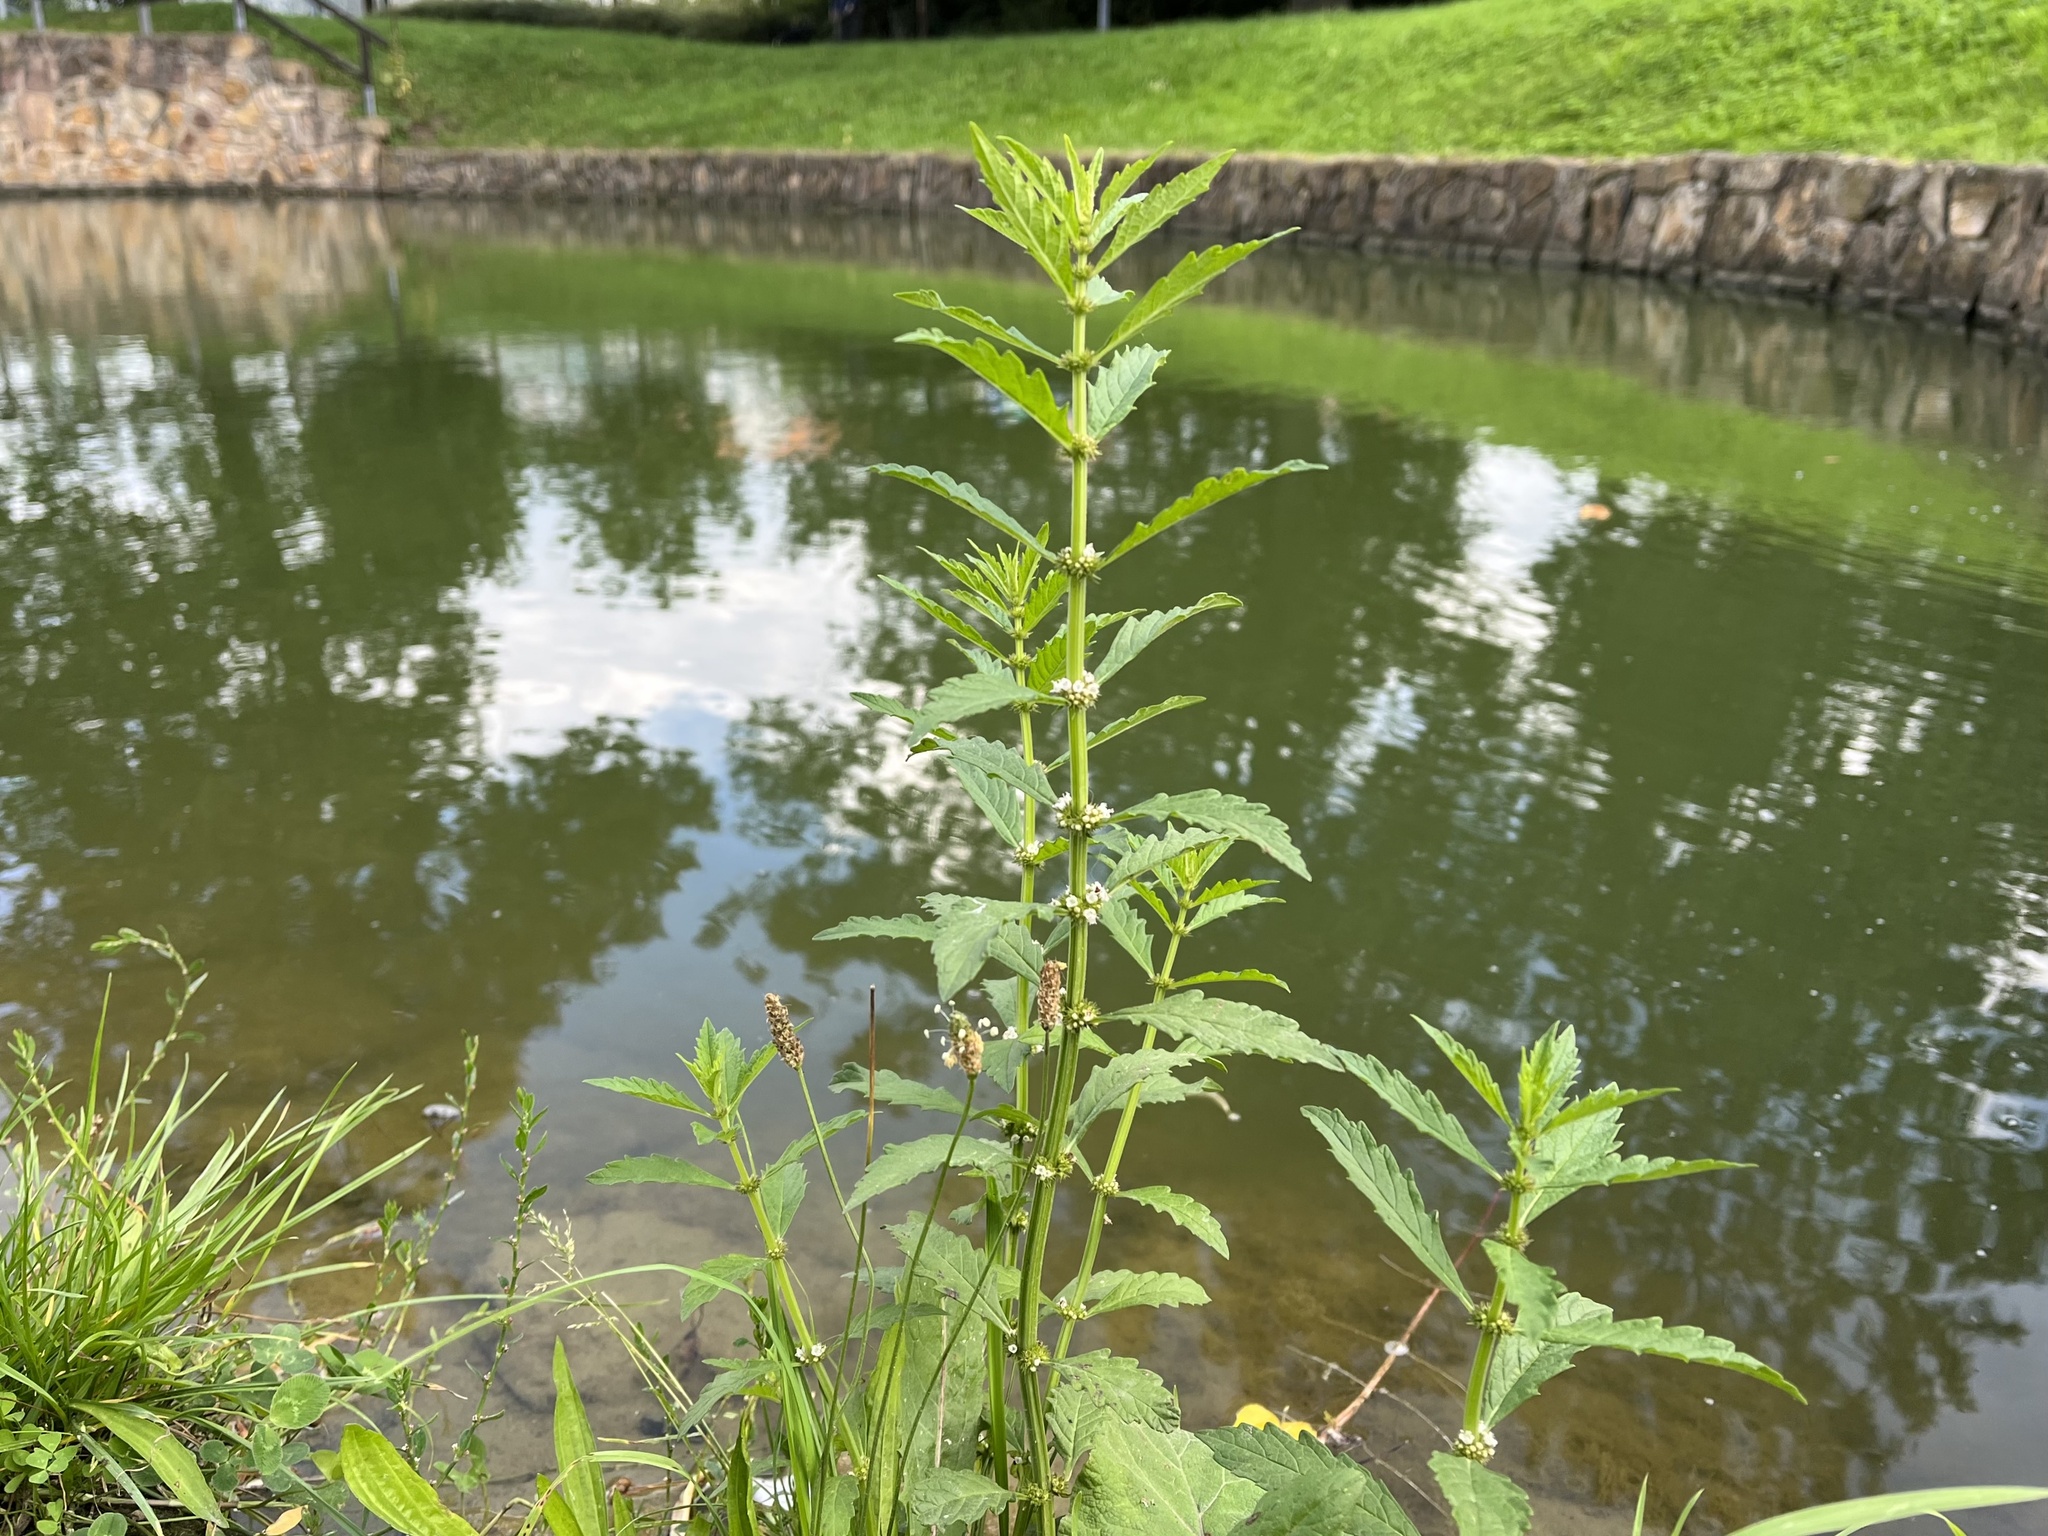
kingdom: Plantae
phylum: Tracheophyta
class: Magnoliopsida
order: Lamiales
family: Lamiaceae
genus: Lycopus
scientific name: Lycopus europaeus
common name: European bugleweed
